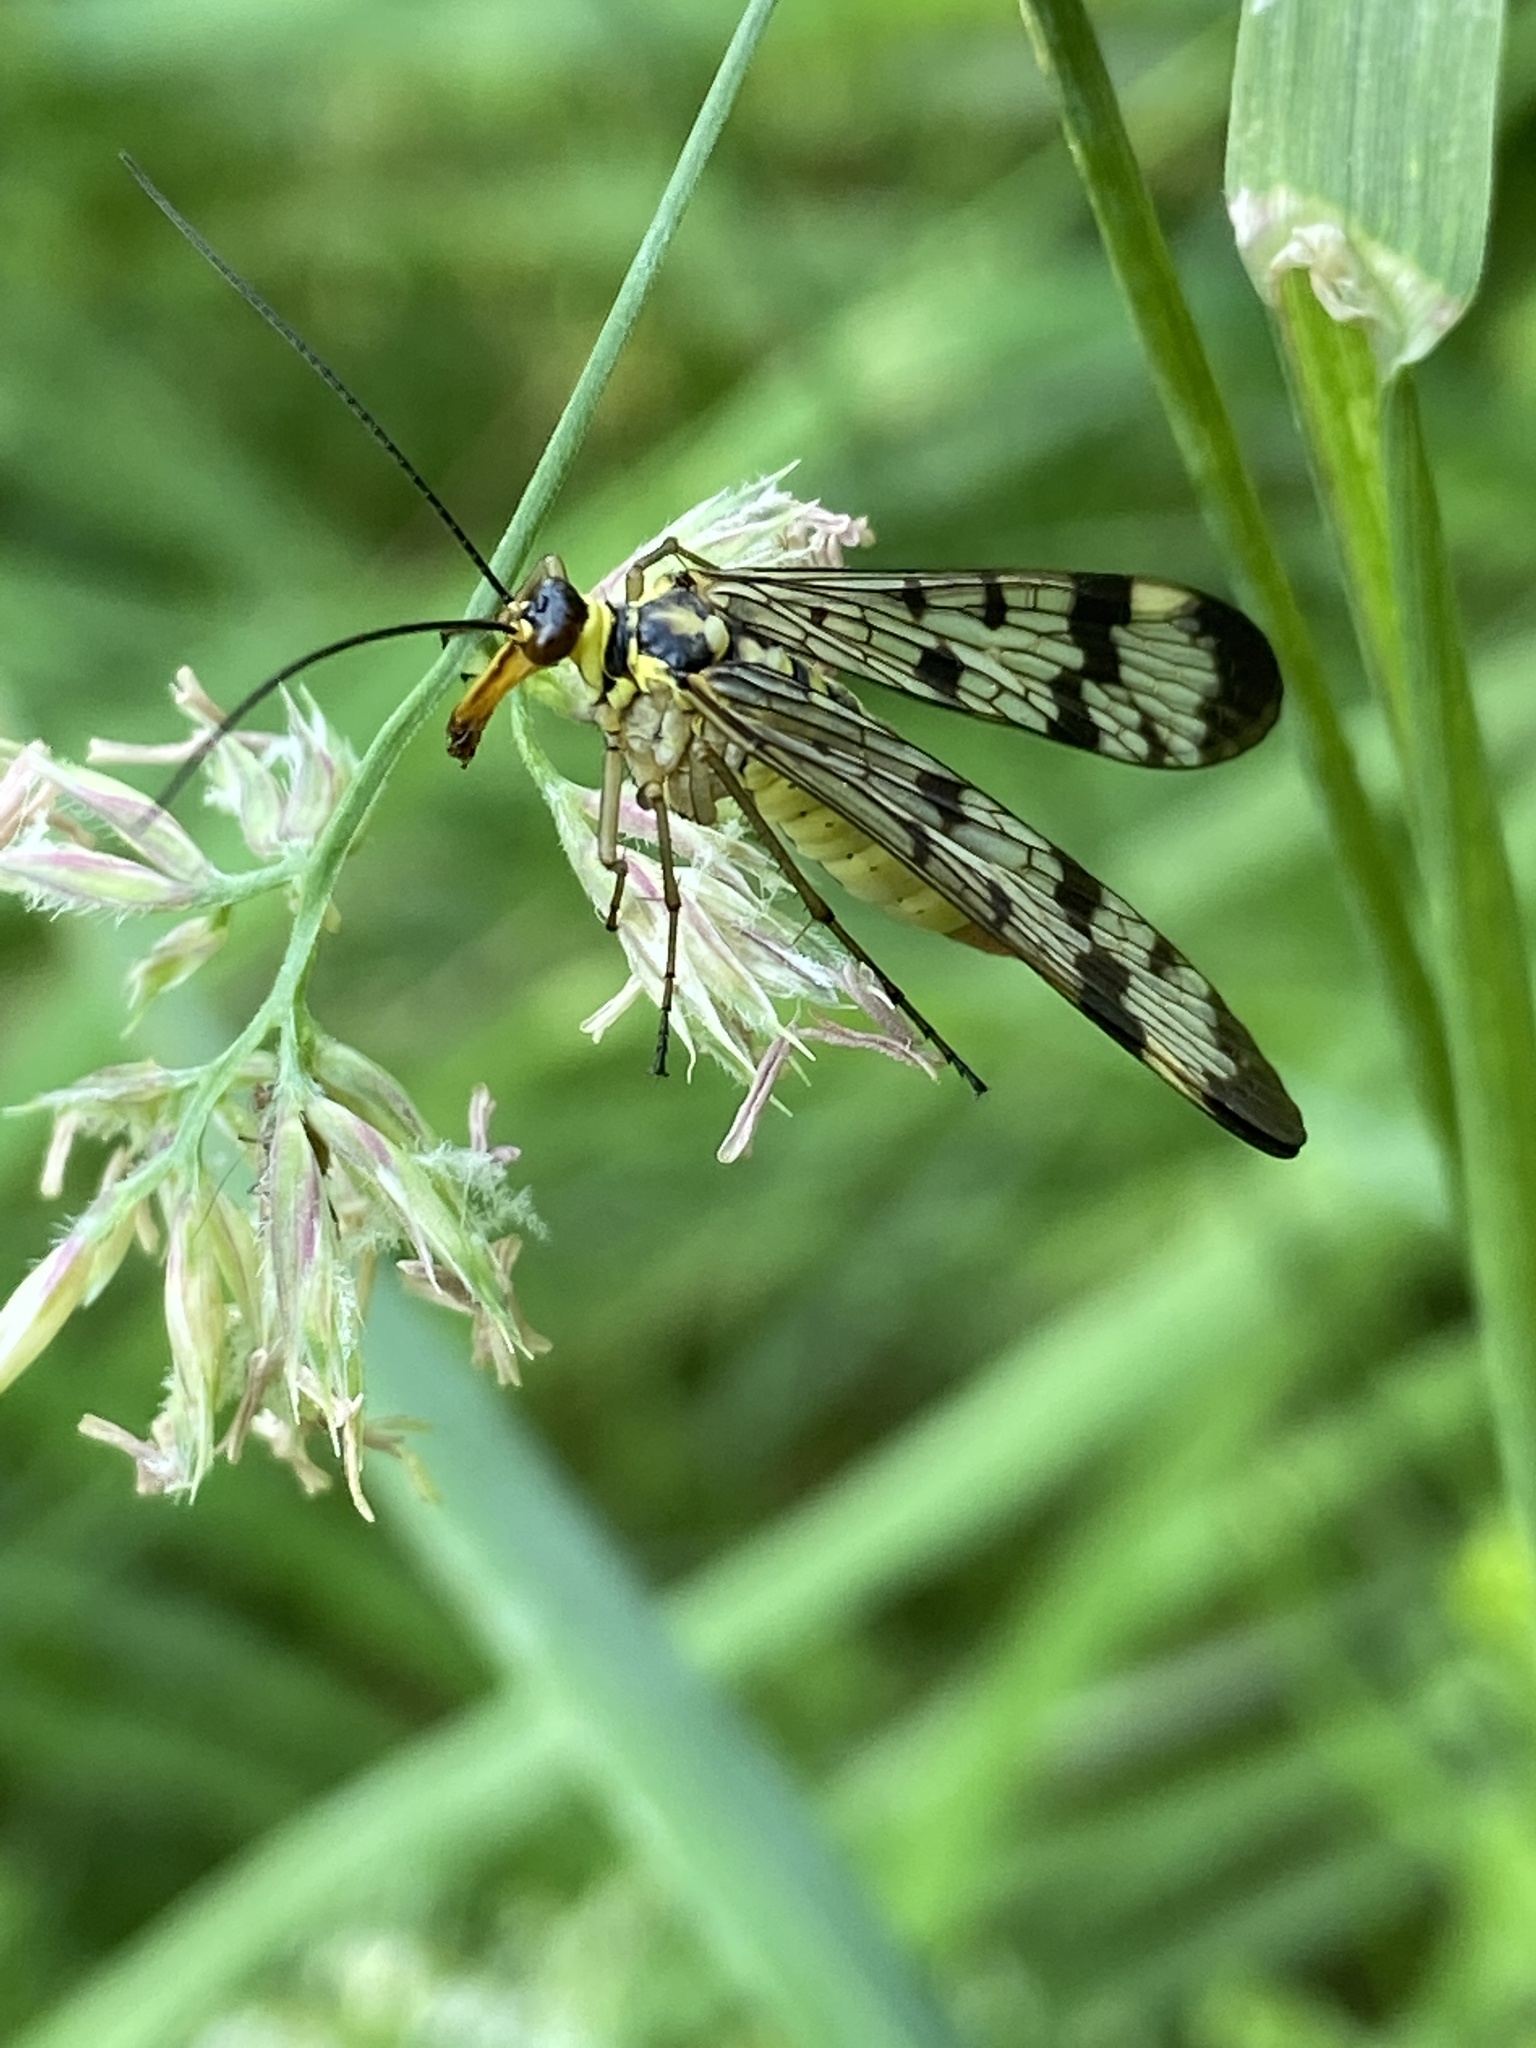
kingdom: Animalia
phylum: Arthropoda
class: Insecta
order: Mecoptera
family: Panorpidae
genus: Panorpa
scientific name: Panorpa communis
